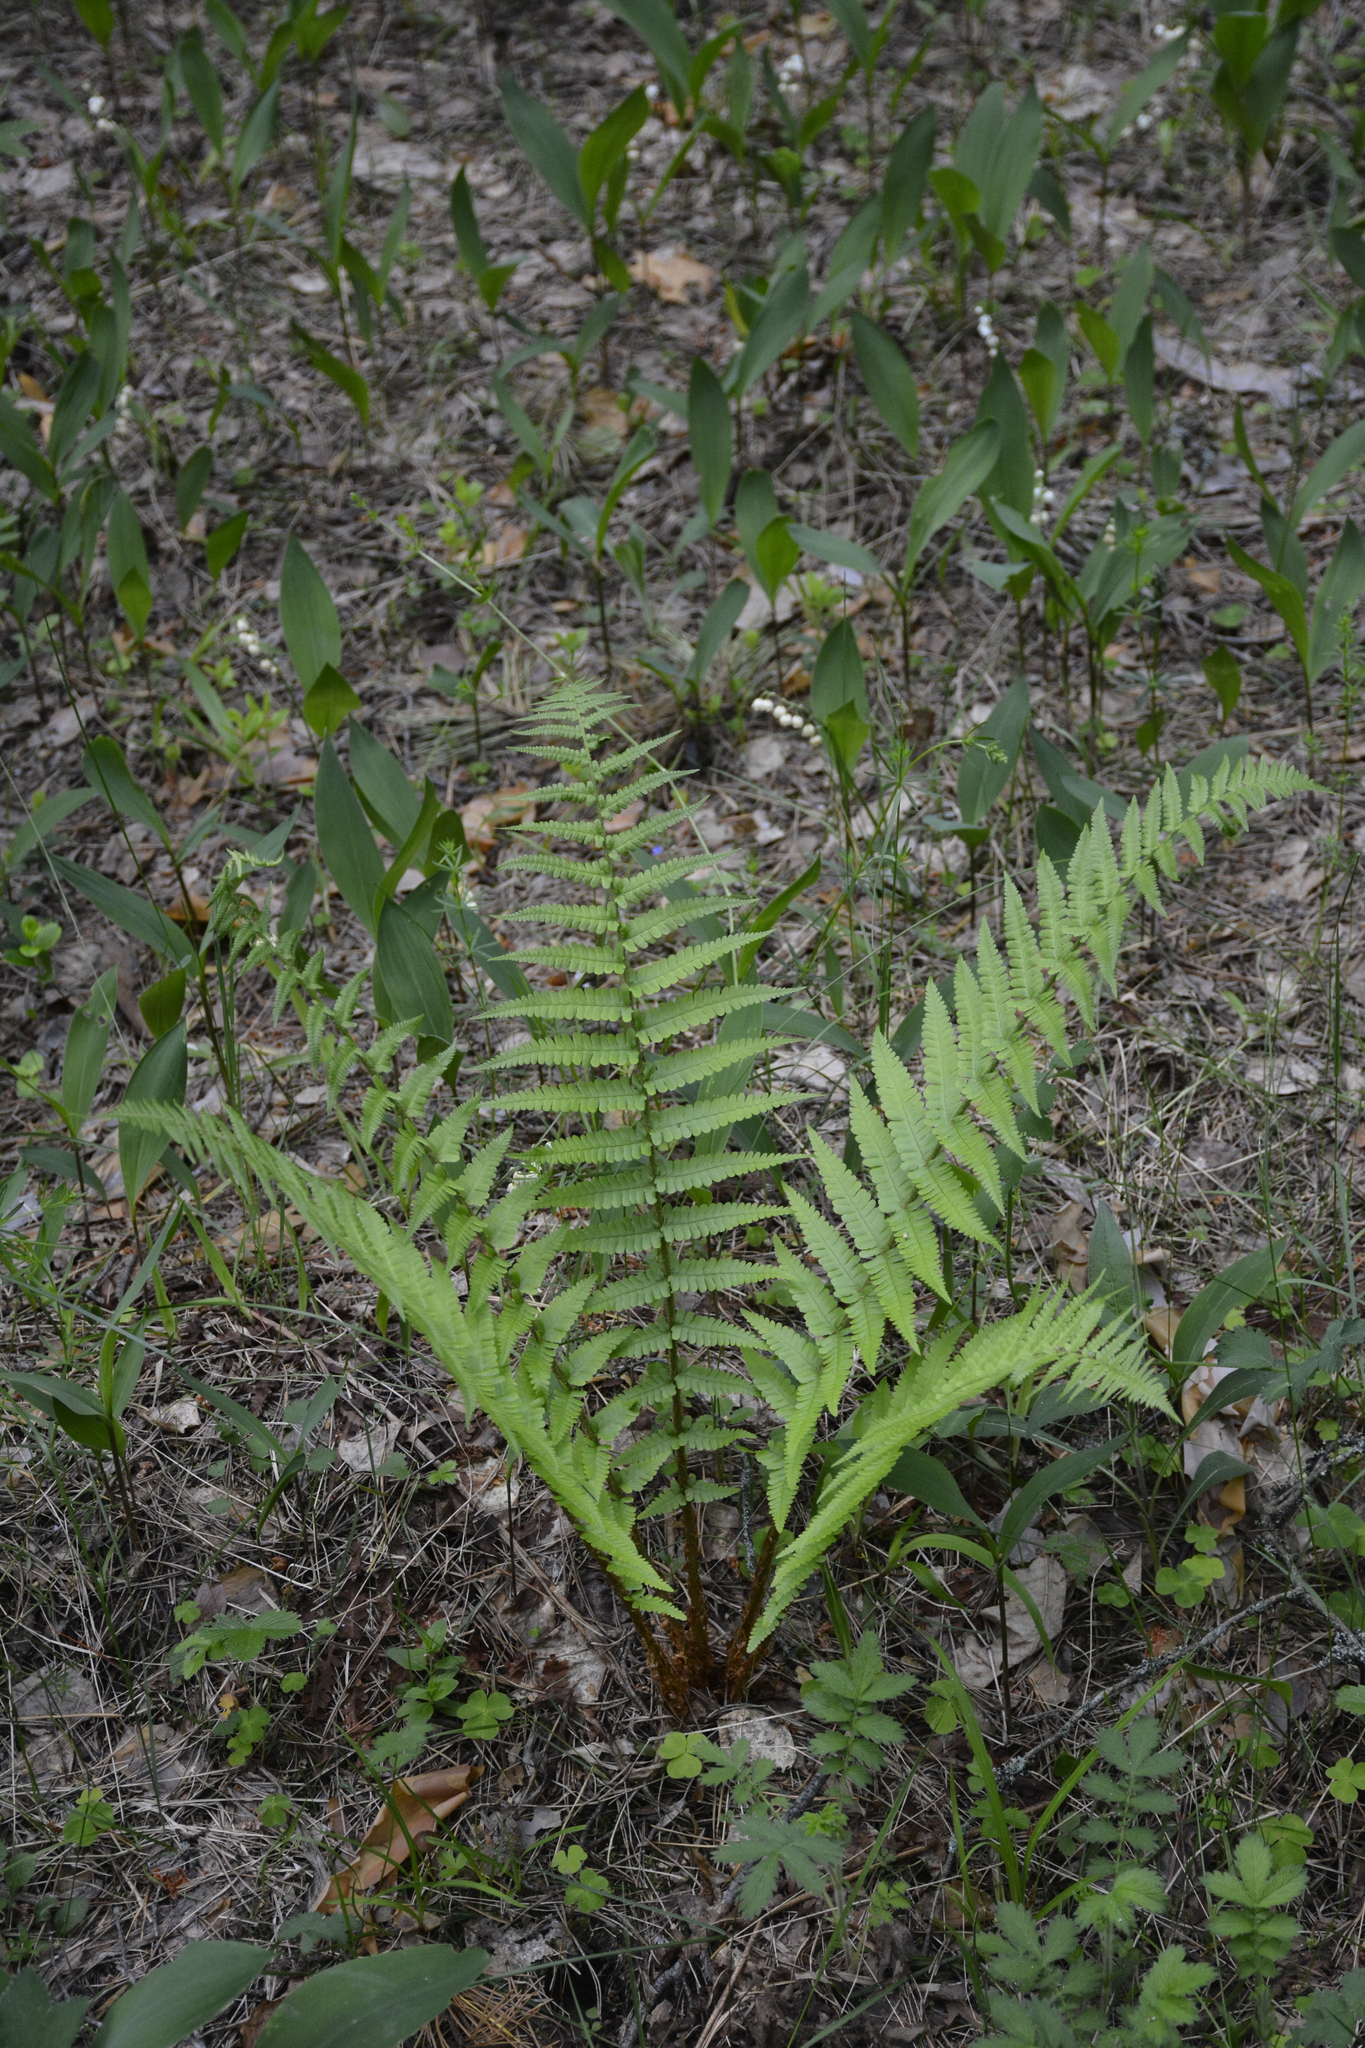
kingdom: Plantae
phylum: Tracheophyta
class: Polypodiopsida
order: Polypodiales
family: Dryopteridaceae
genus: Dryopteris
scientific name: Dryopteris filix-mas
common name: Male fern
